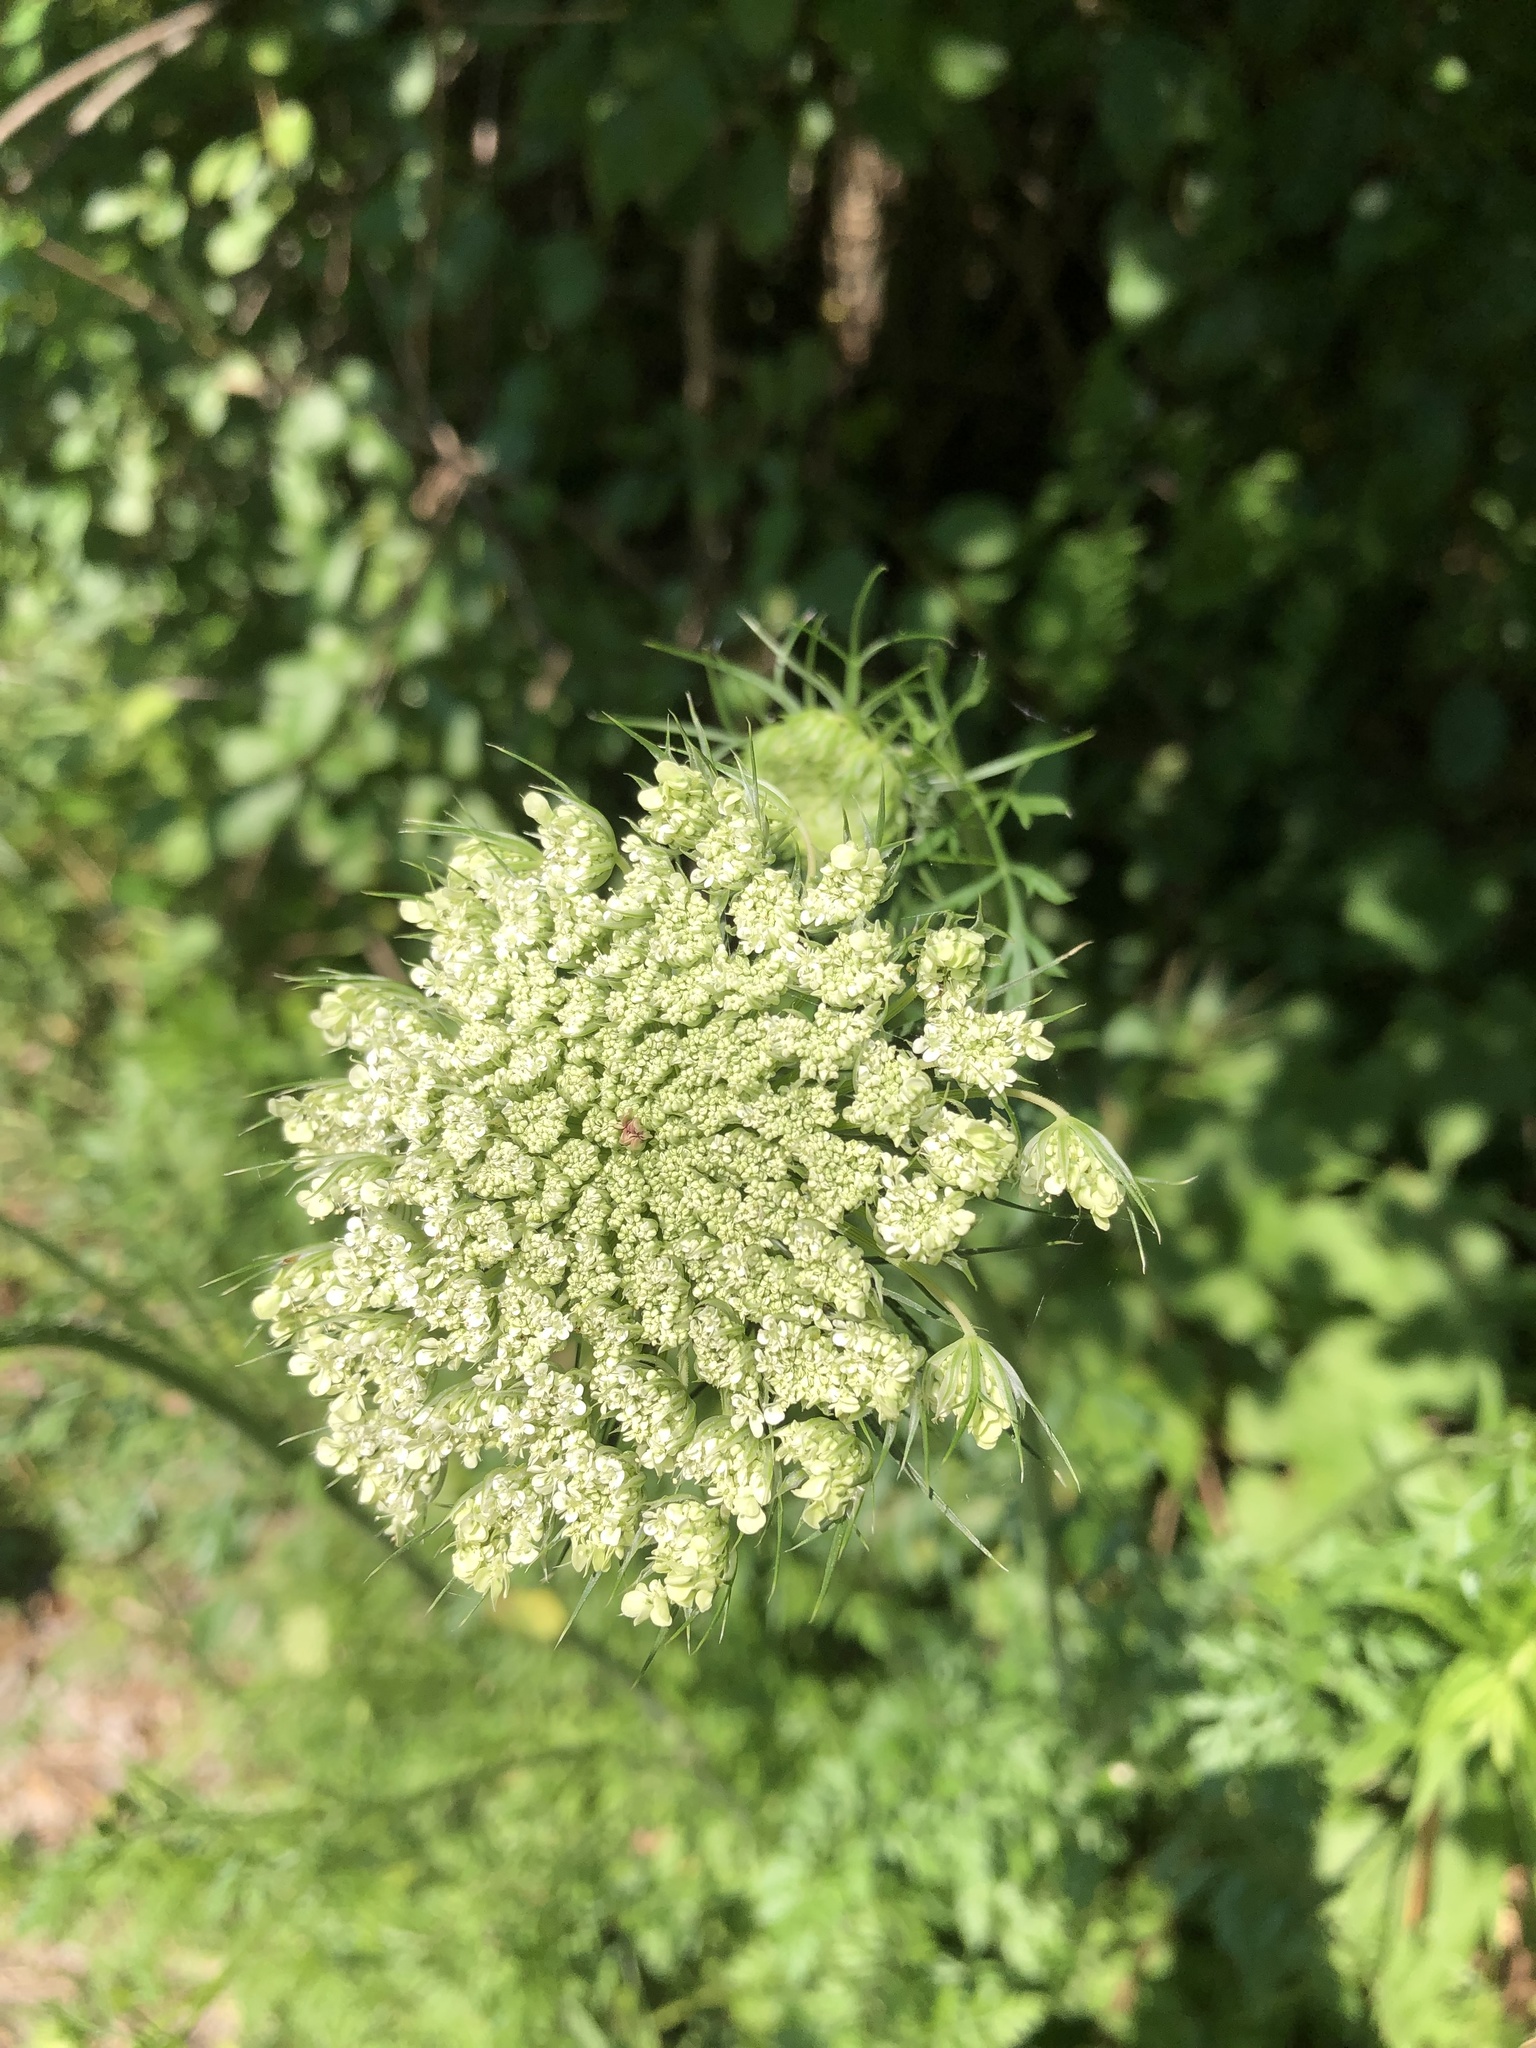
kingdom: Plantae
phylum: Tracheophyta
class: Magnoliopsida
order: Apiales
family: Apiaceae
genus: Daucus
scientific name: Daucus carota
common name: Wild carrot
